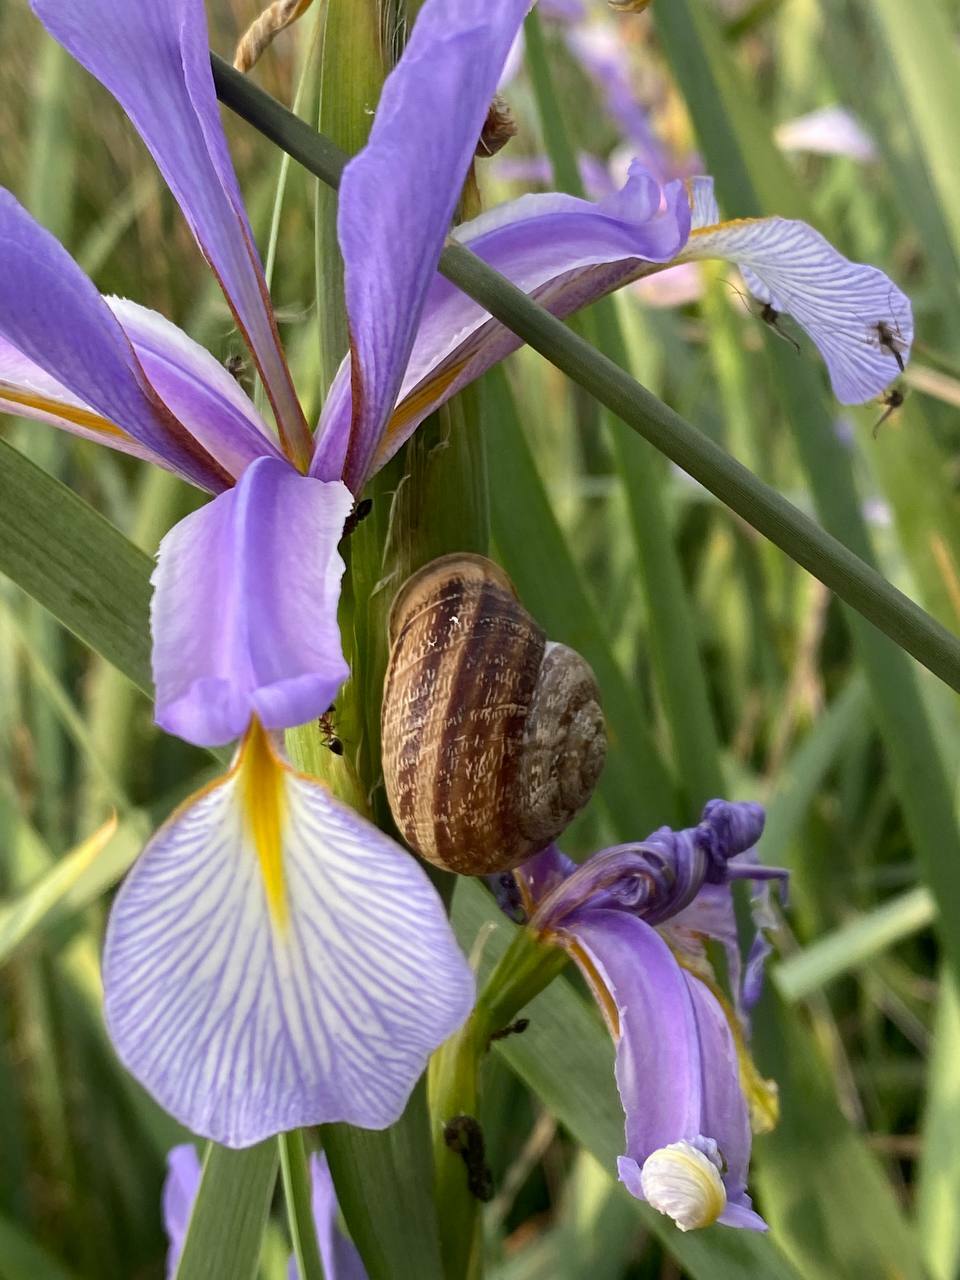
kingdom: Animalia
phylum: Mollusca
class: Gastropoda
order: Stylommatophora
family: Helicidae
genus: Eobania
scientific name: Eobania vermiculata
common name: Chocolateband snail
